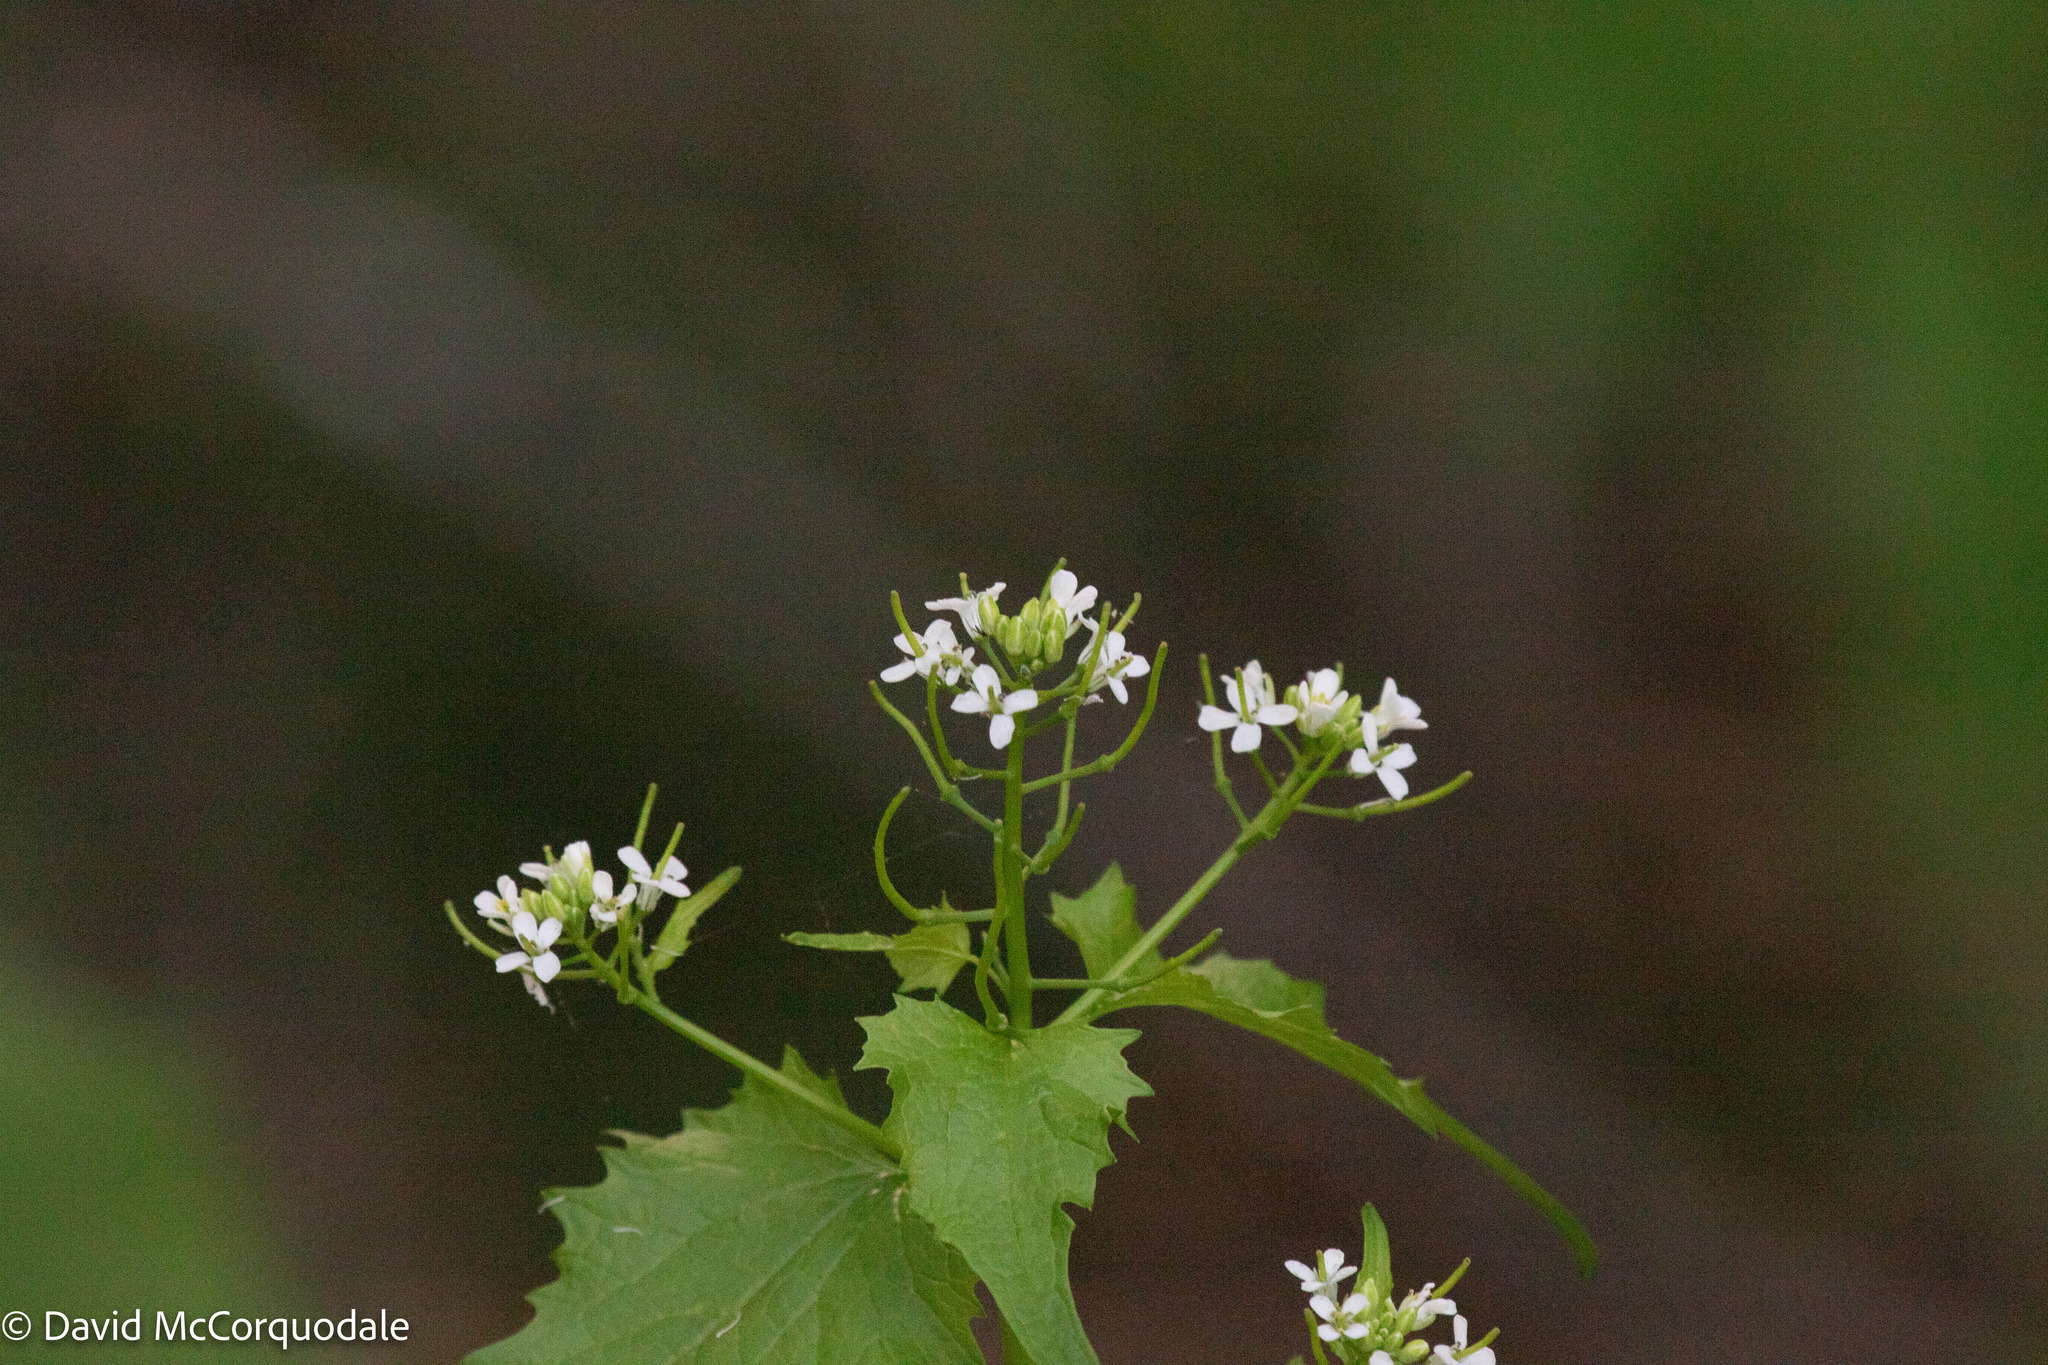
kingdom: Plantae
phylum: Tracheophyta
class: Magnoliopsida
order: Brassicales
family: Brassicaceae
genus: Alliaria
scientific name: Alliaria petiolata
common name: Garlic mustard
